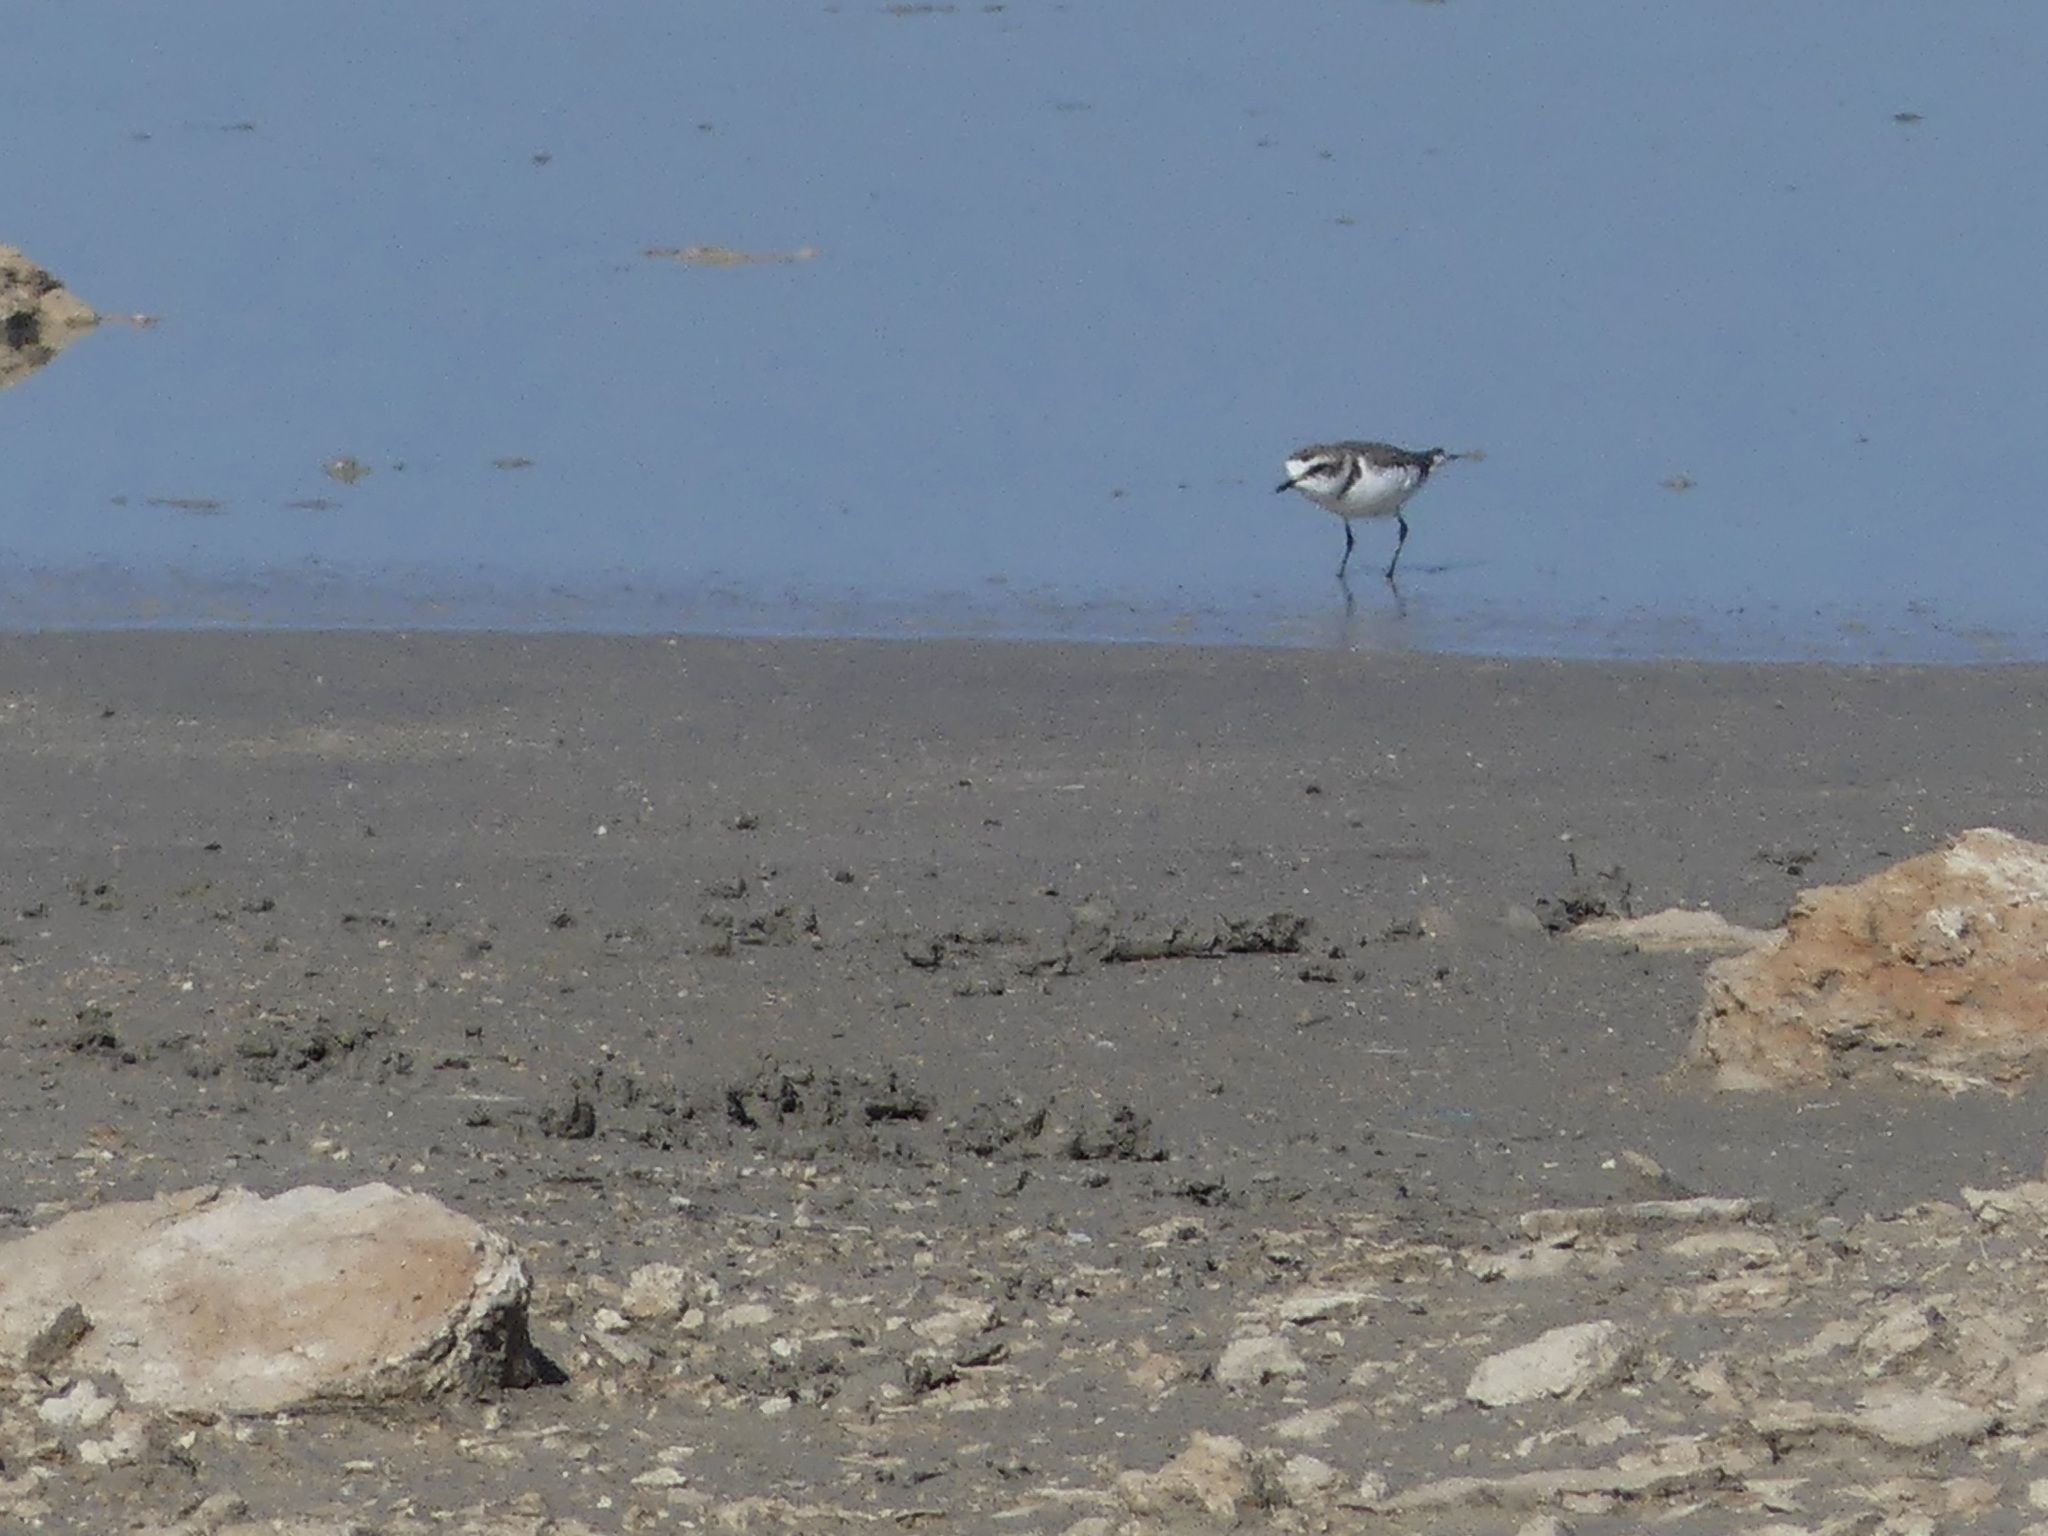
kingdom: Animalia
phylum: Chordata
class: Aves
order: Charadriiformes
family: Charadriidae
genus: Charadrius
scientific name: Charadrius alexandrinus
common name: Kentish plover
